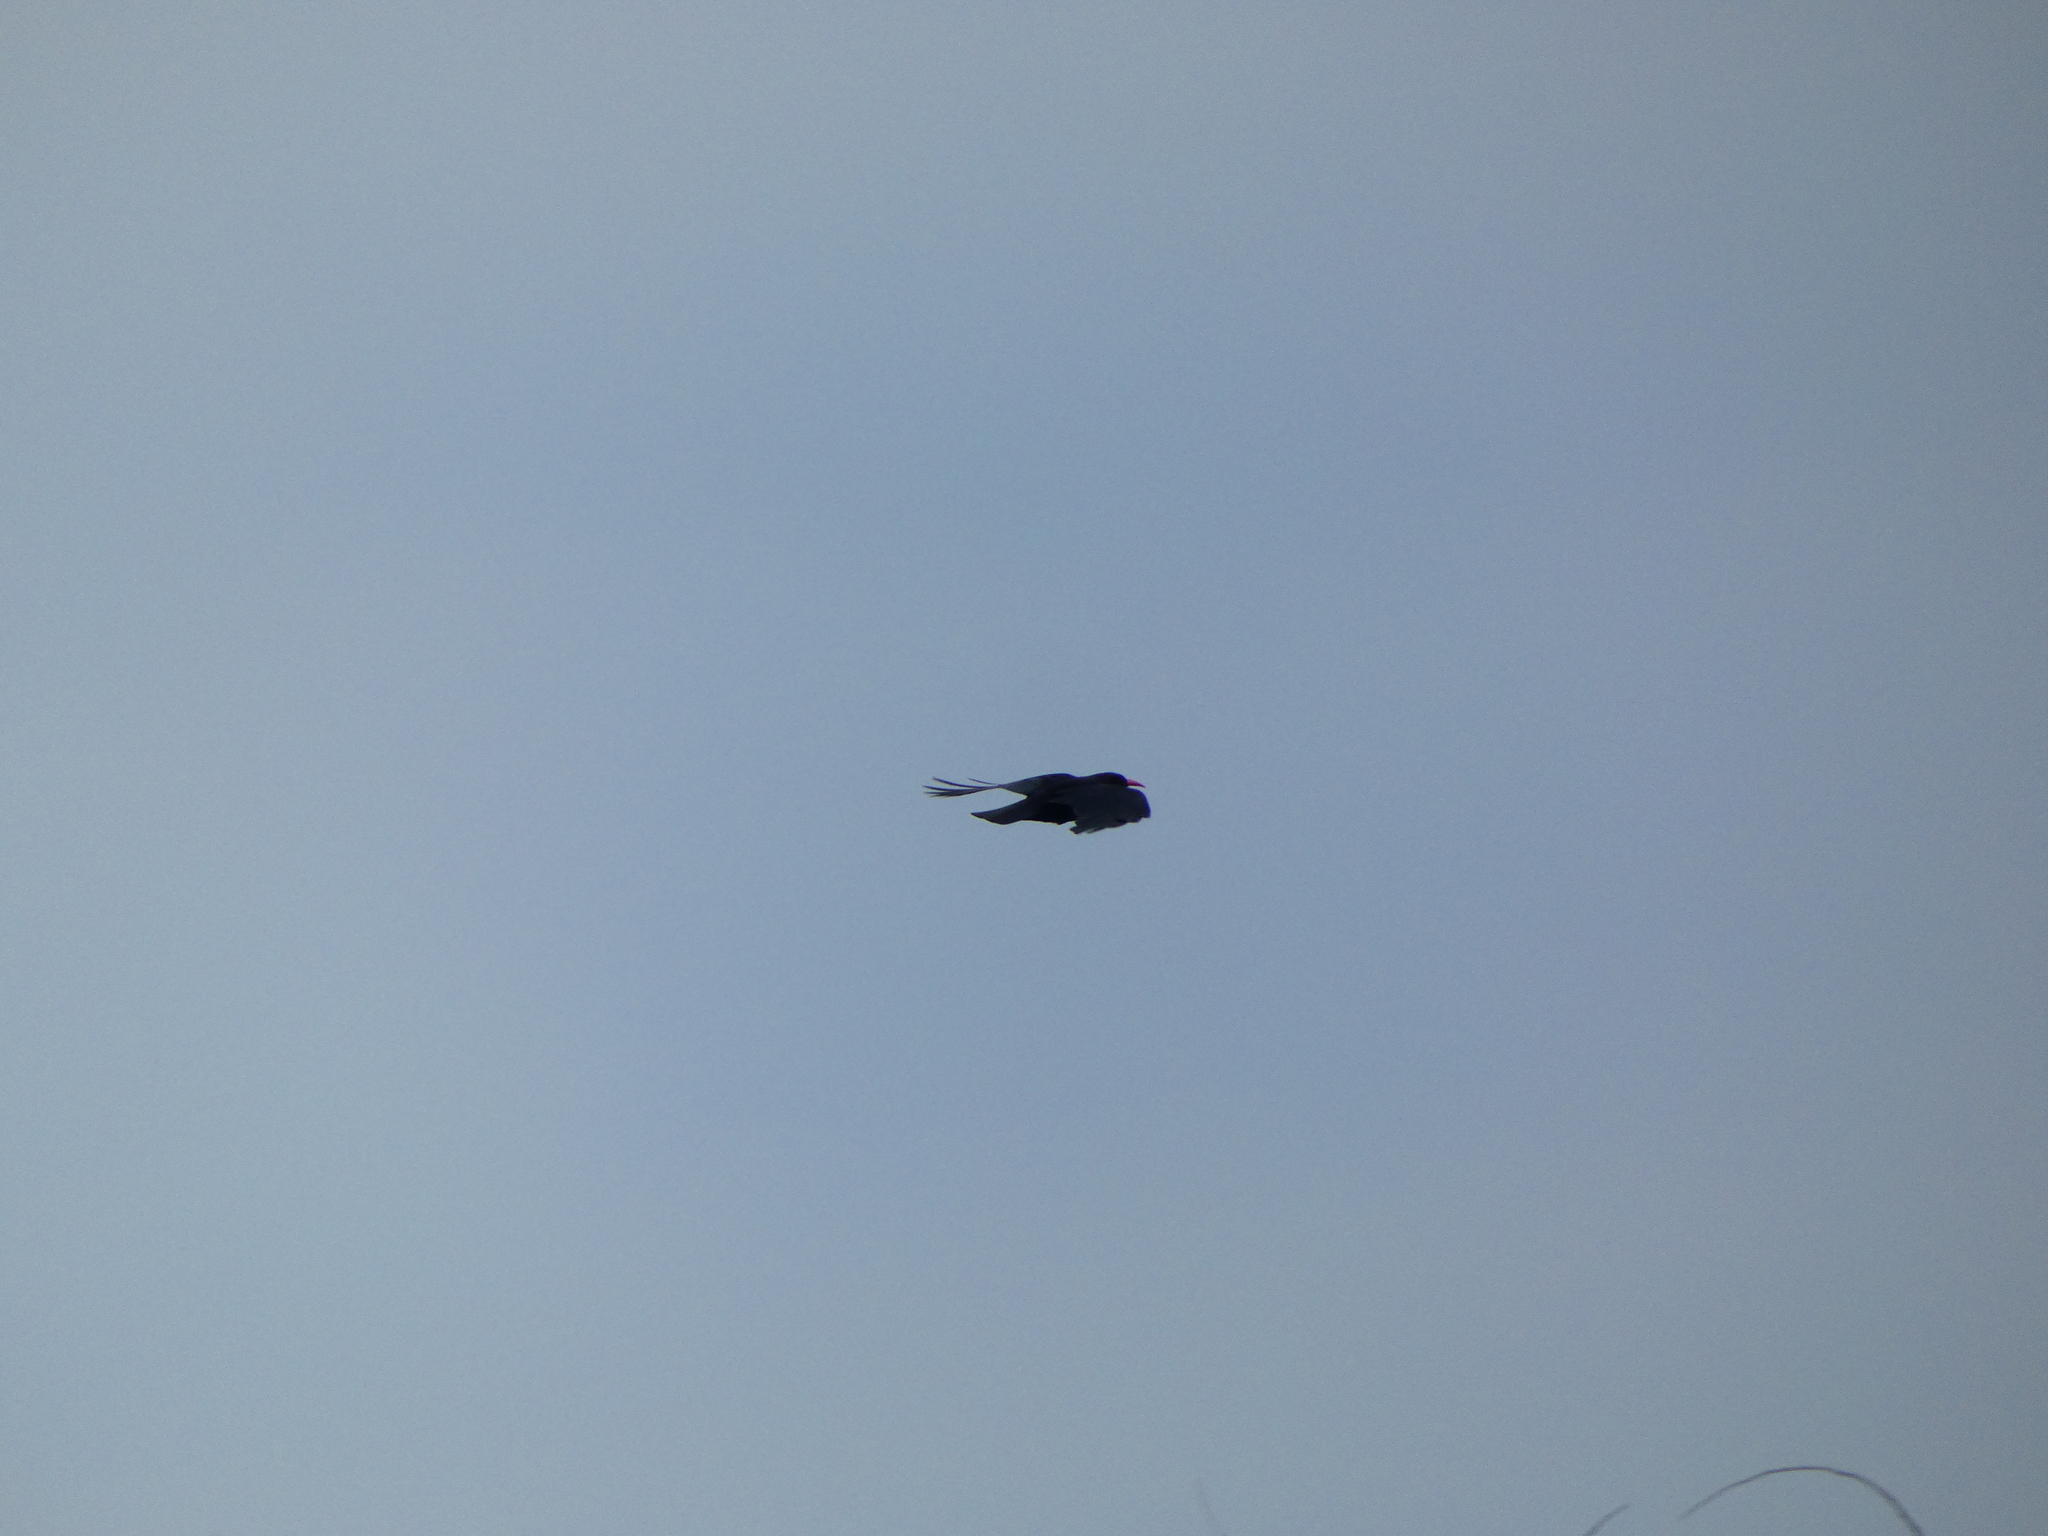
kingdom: Animalia
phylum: Chordata
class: Aves
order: Passeriformes
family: Corvidae
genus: Pyrrhocorax
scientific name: Pyrrhocorax pyrrhocorax
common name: Red-billed chough
